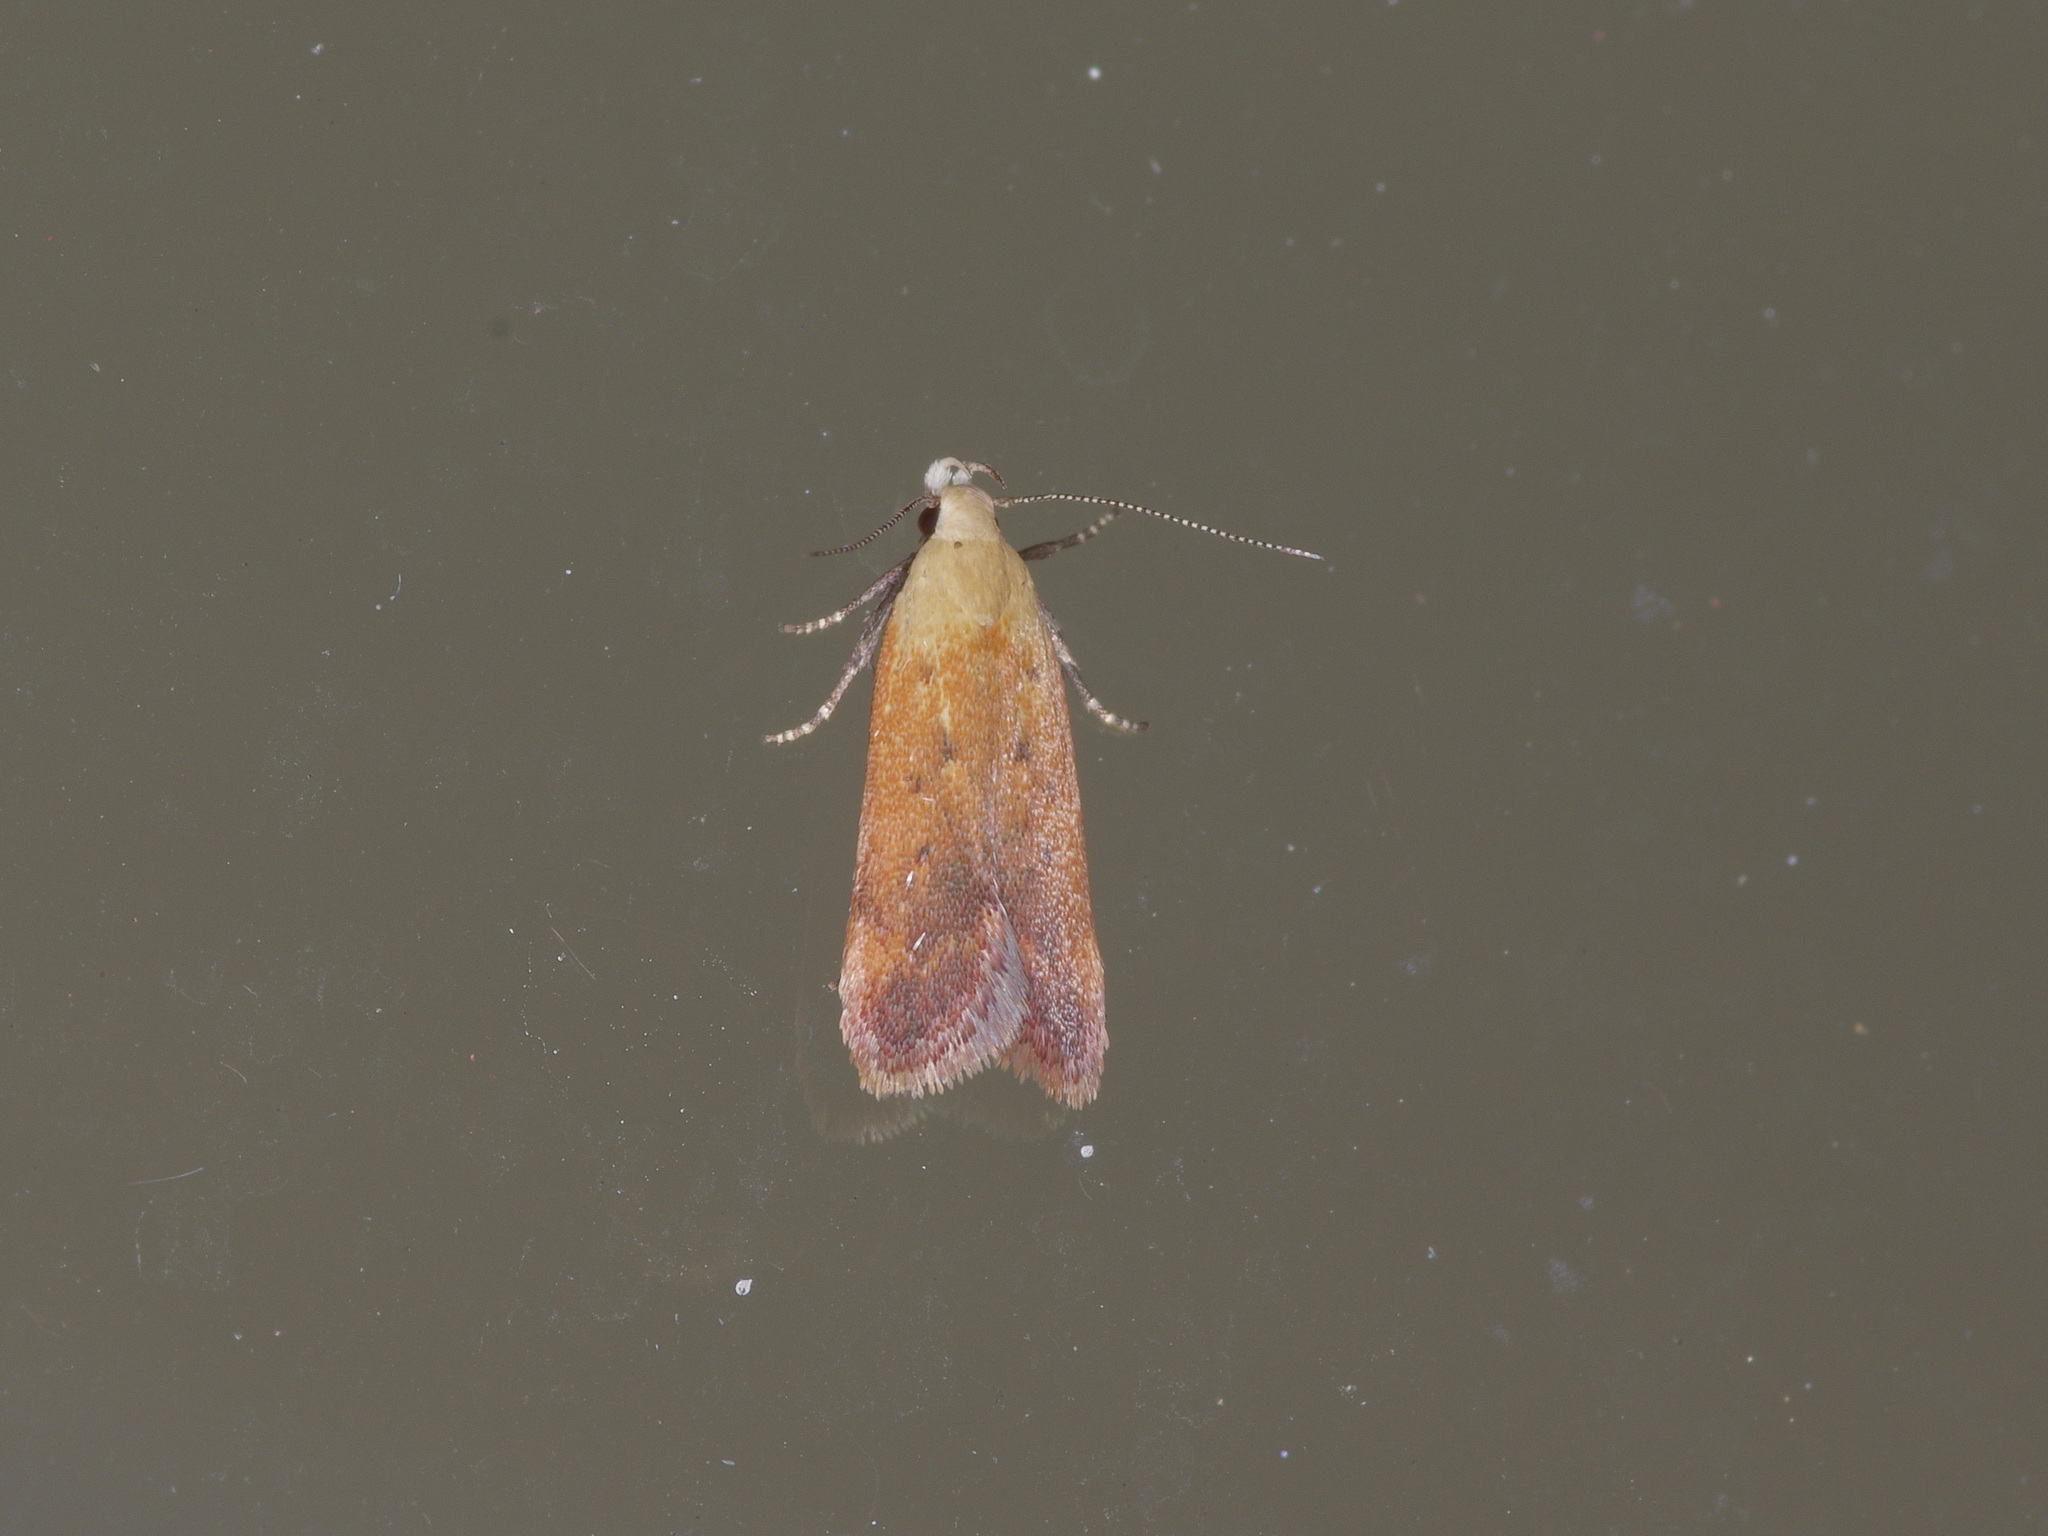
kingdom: Animalia
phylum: Arthropoda
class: Insecta
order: Lepidoptera
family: Gelechiidae
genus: Anacampsis
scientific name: Anacampsis fullonella
